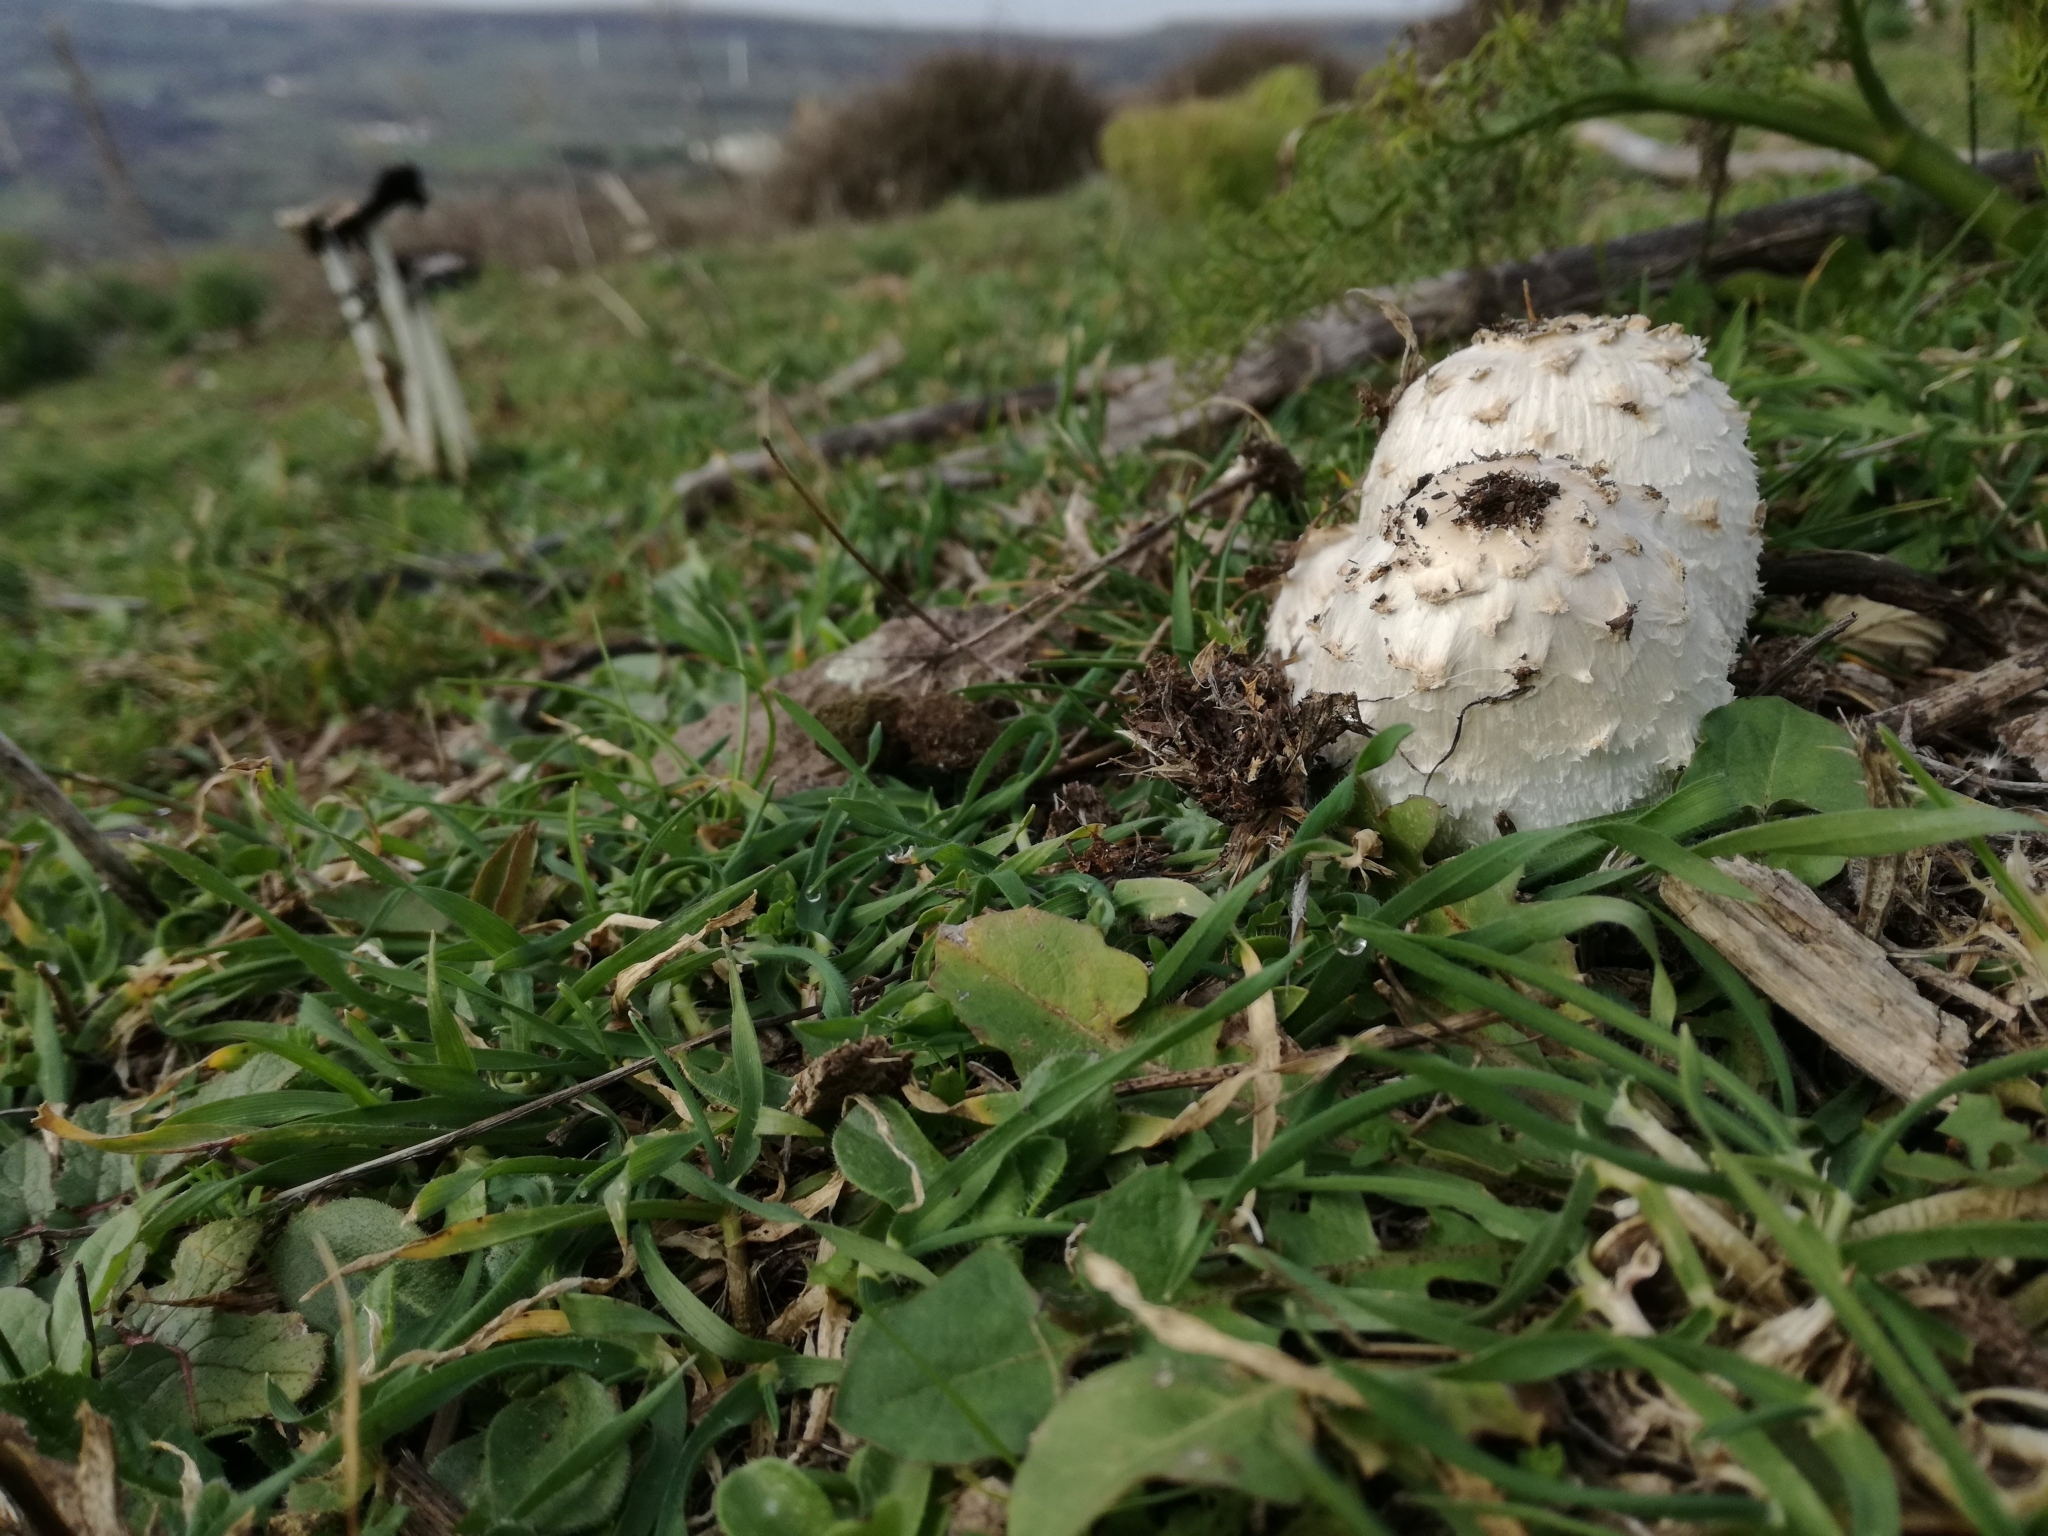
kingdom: Fungi
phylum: Basidiomycota
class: Agaricomycetes
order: Agaricales
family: Agaricaceae
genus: Coprinus
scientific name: Coprinus comatus
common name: Lawyer's wig
